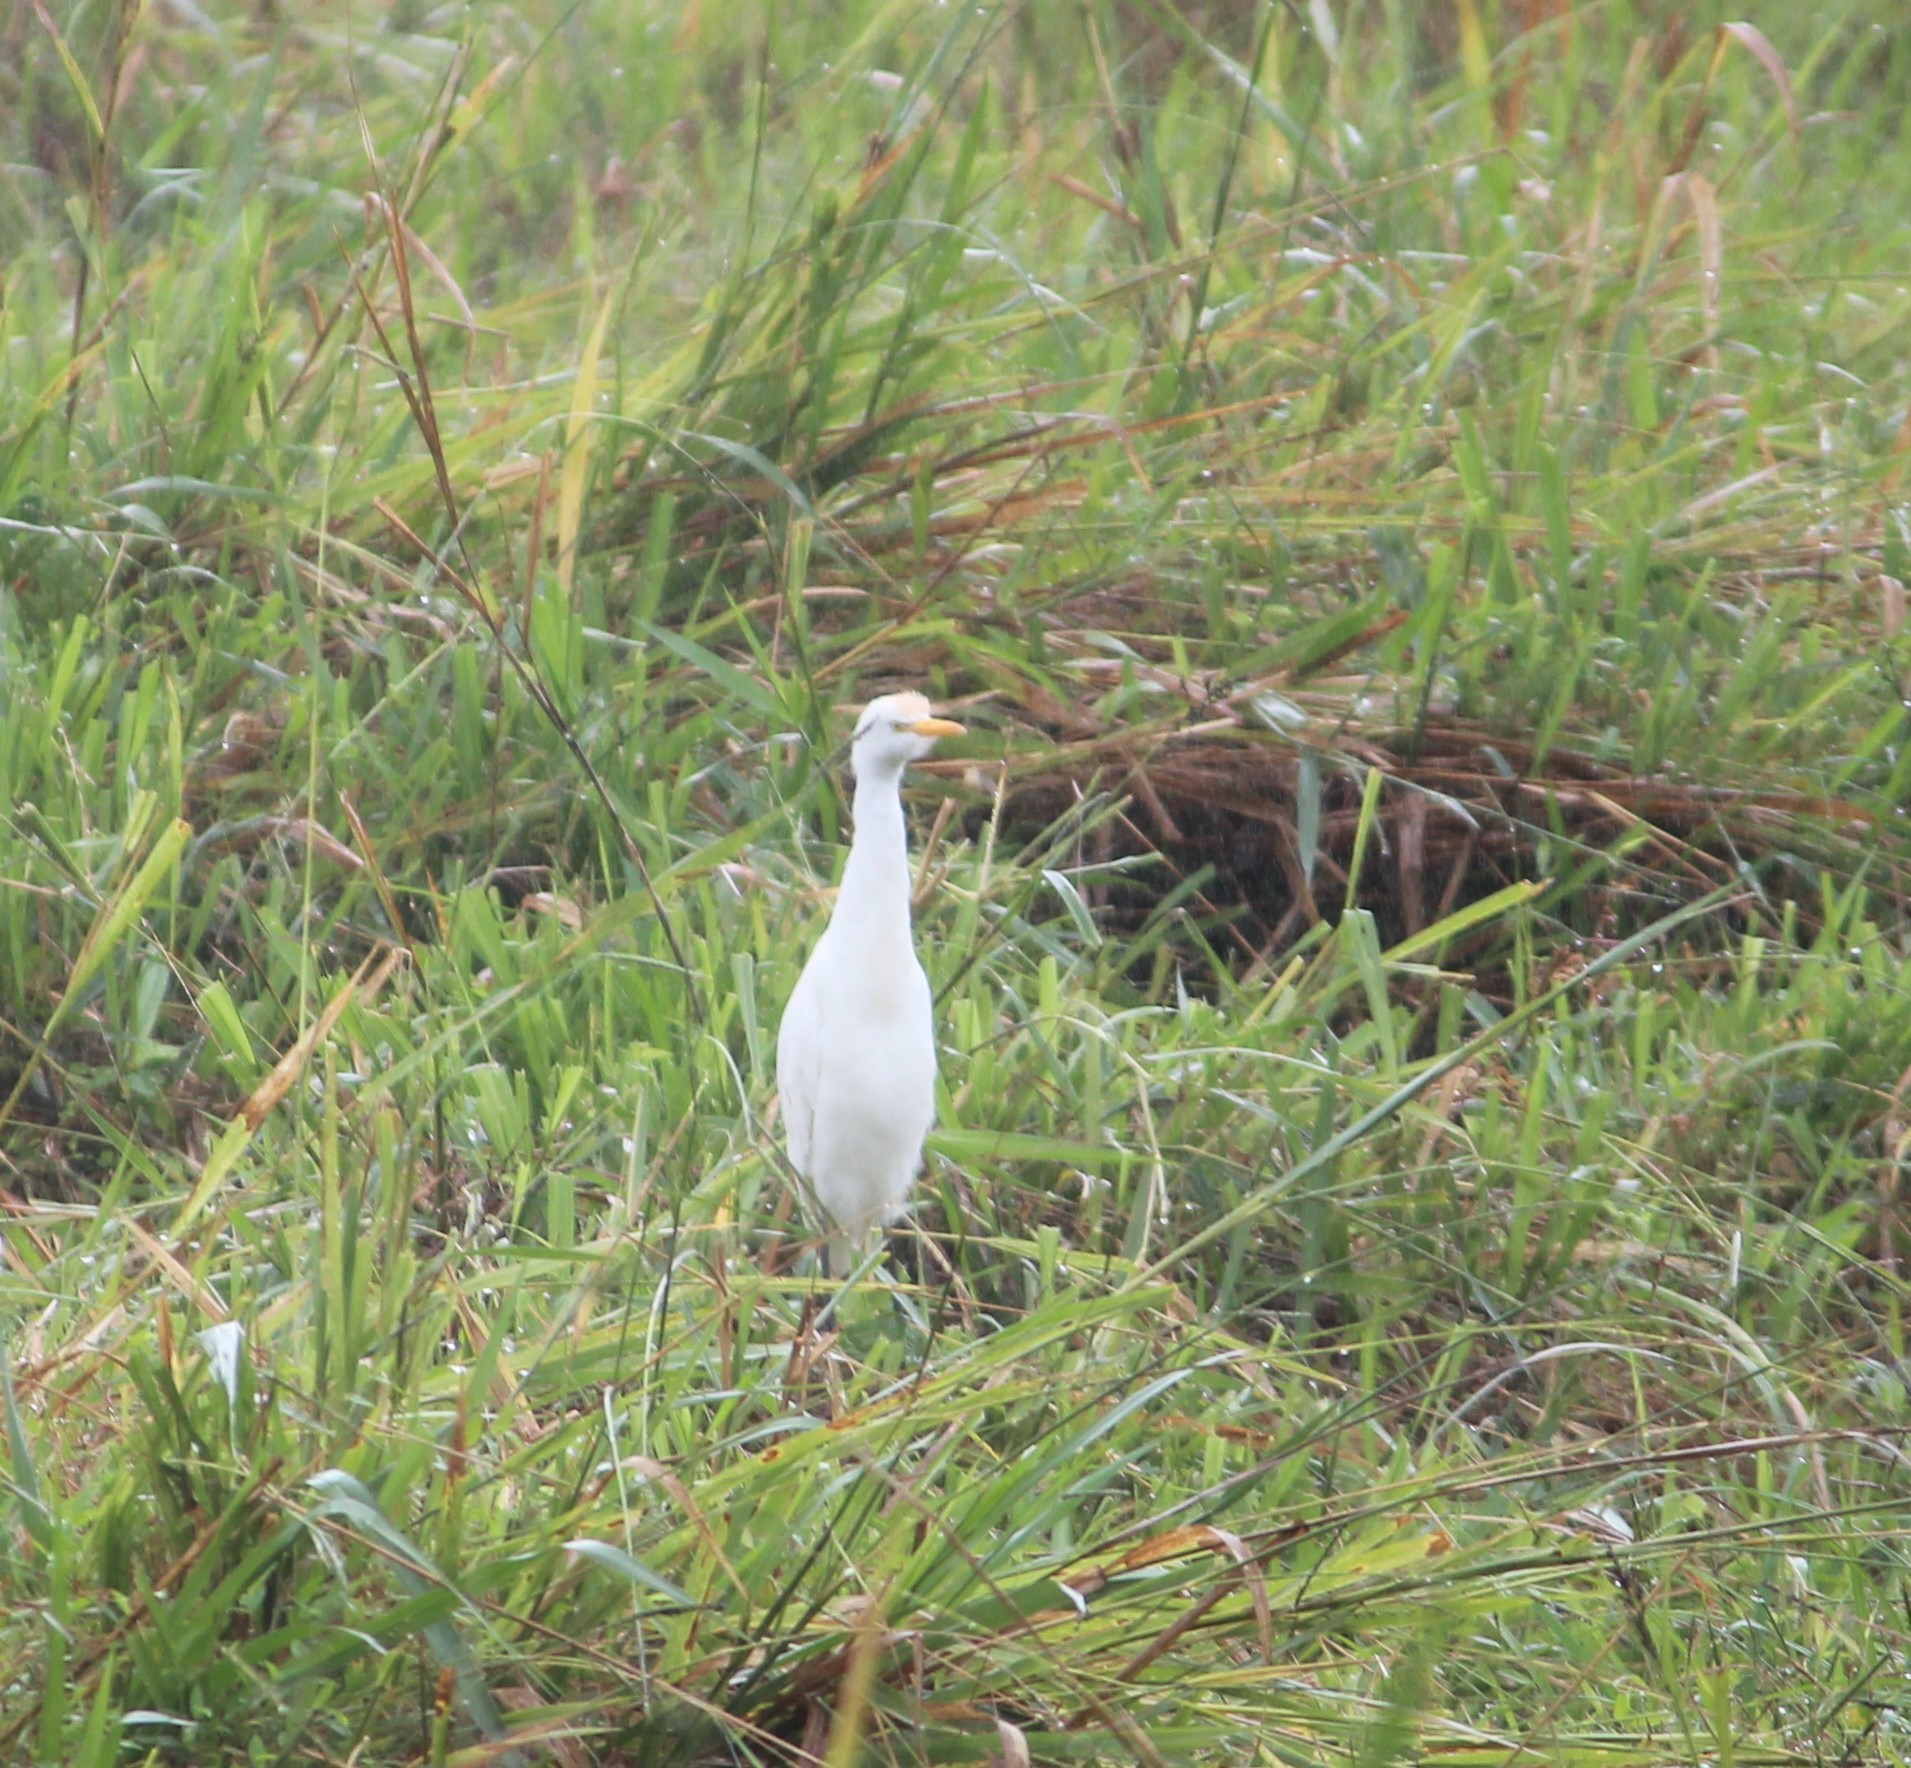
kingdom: Animalia
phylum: Chordata
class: Aves
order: Pelecaniformes
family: Ardeidae
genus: Bubulcus
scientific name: Bubulcus ibis
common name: Cattle egret
